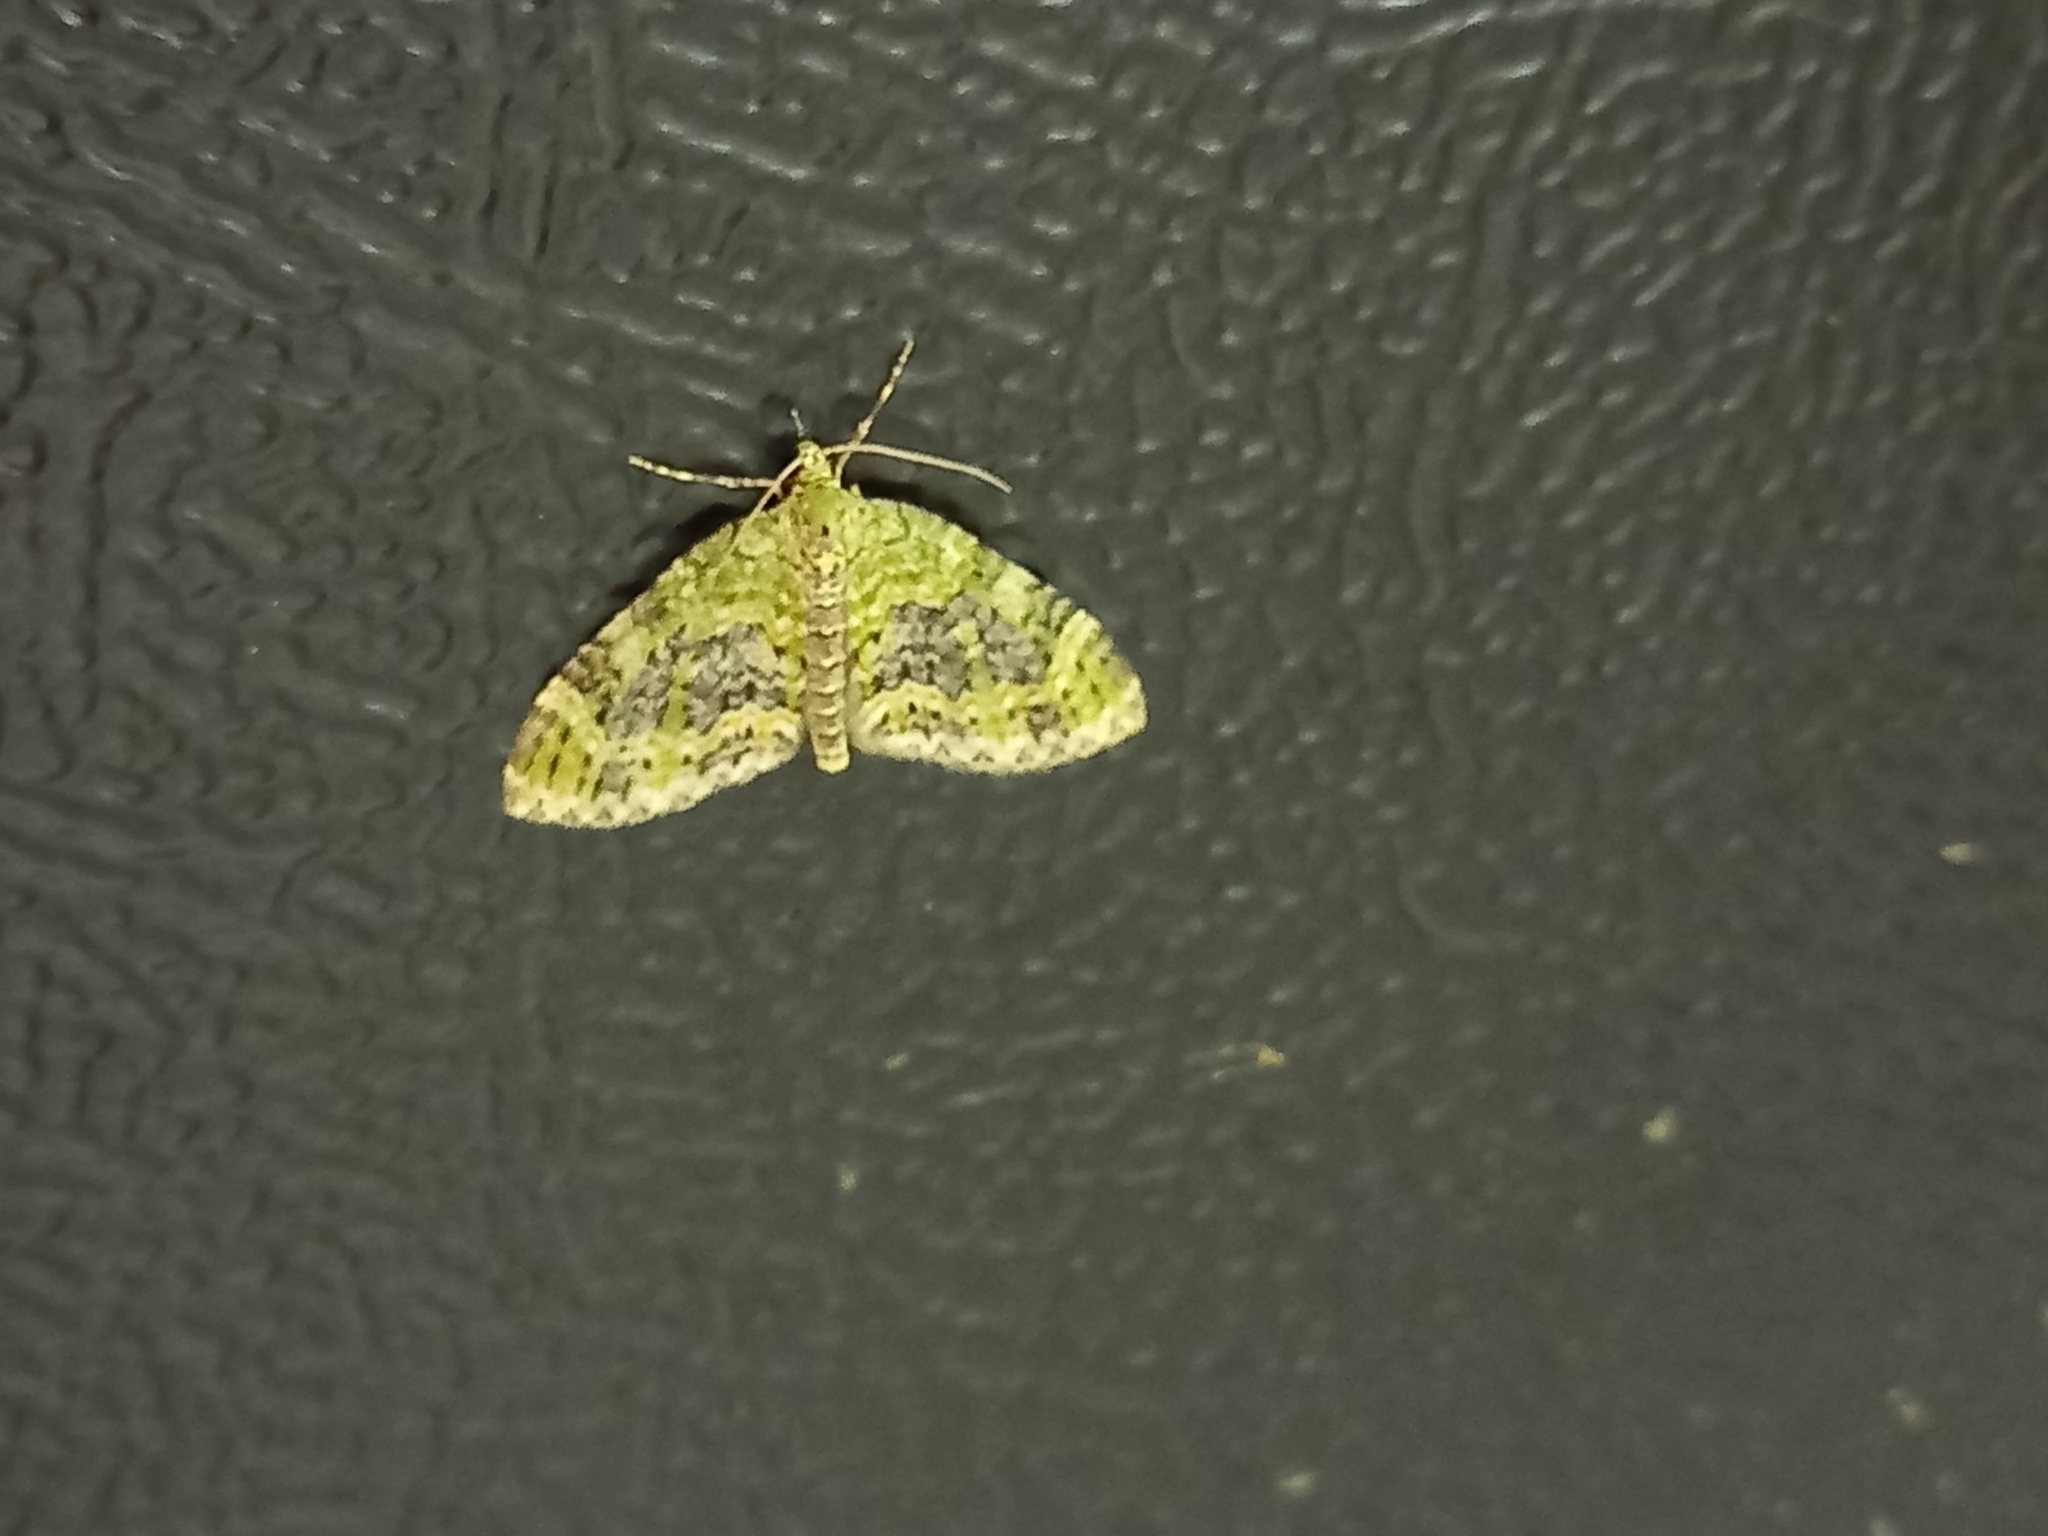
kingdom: Animalia
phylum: Arthropoda
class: Insecta
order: Lepidoptera
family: Geometridae
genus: Acasis
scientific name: Acasis viretata
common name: Yellow-barred brindle
